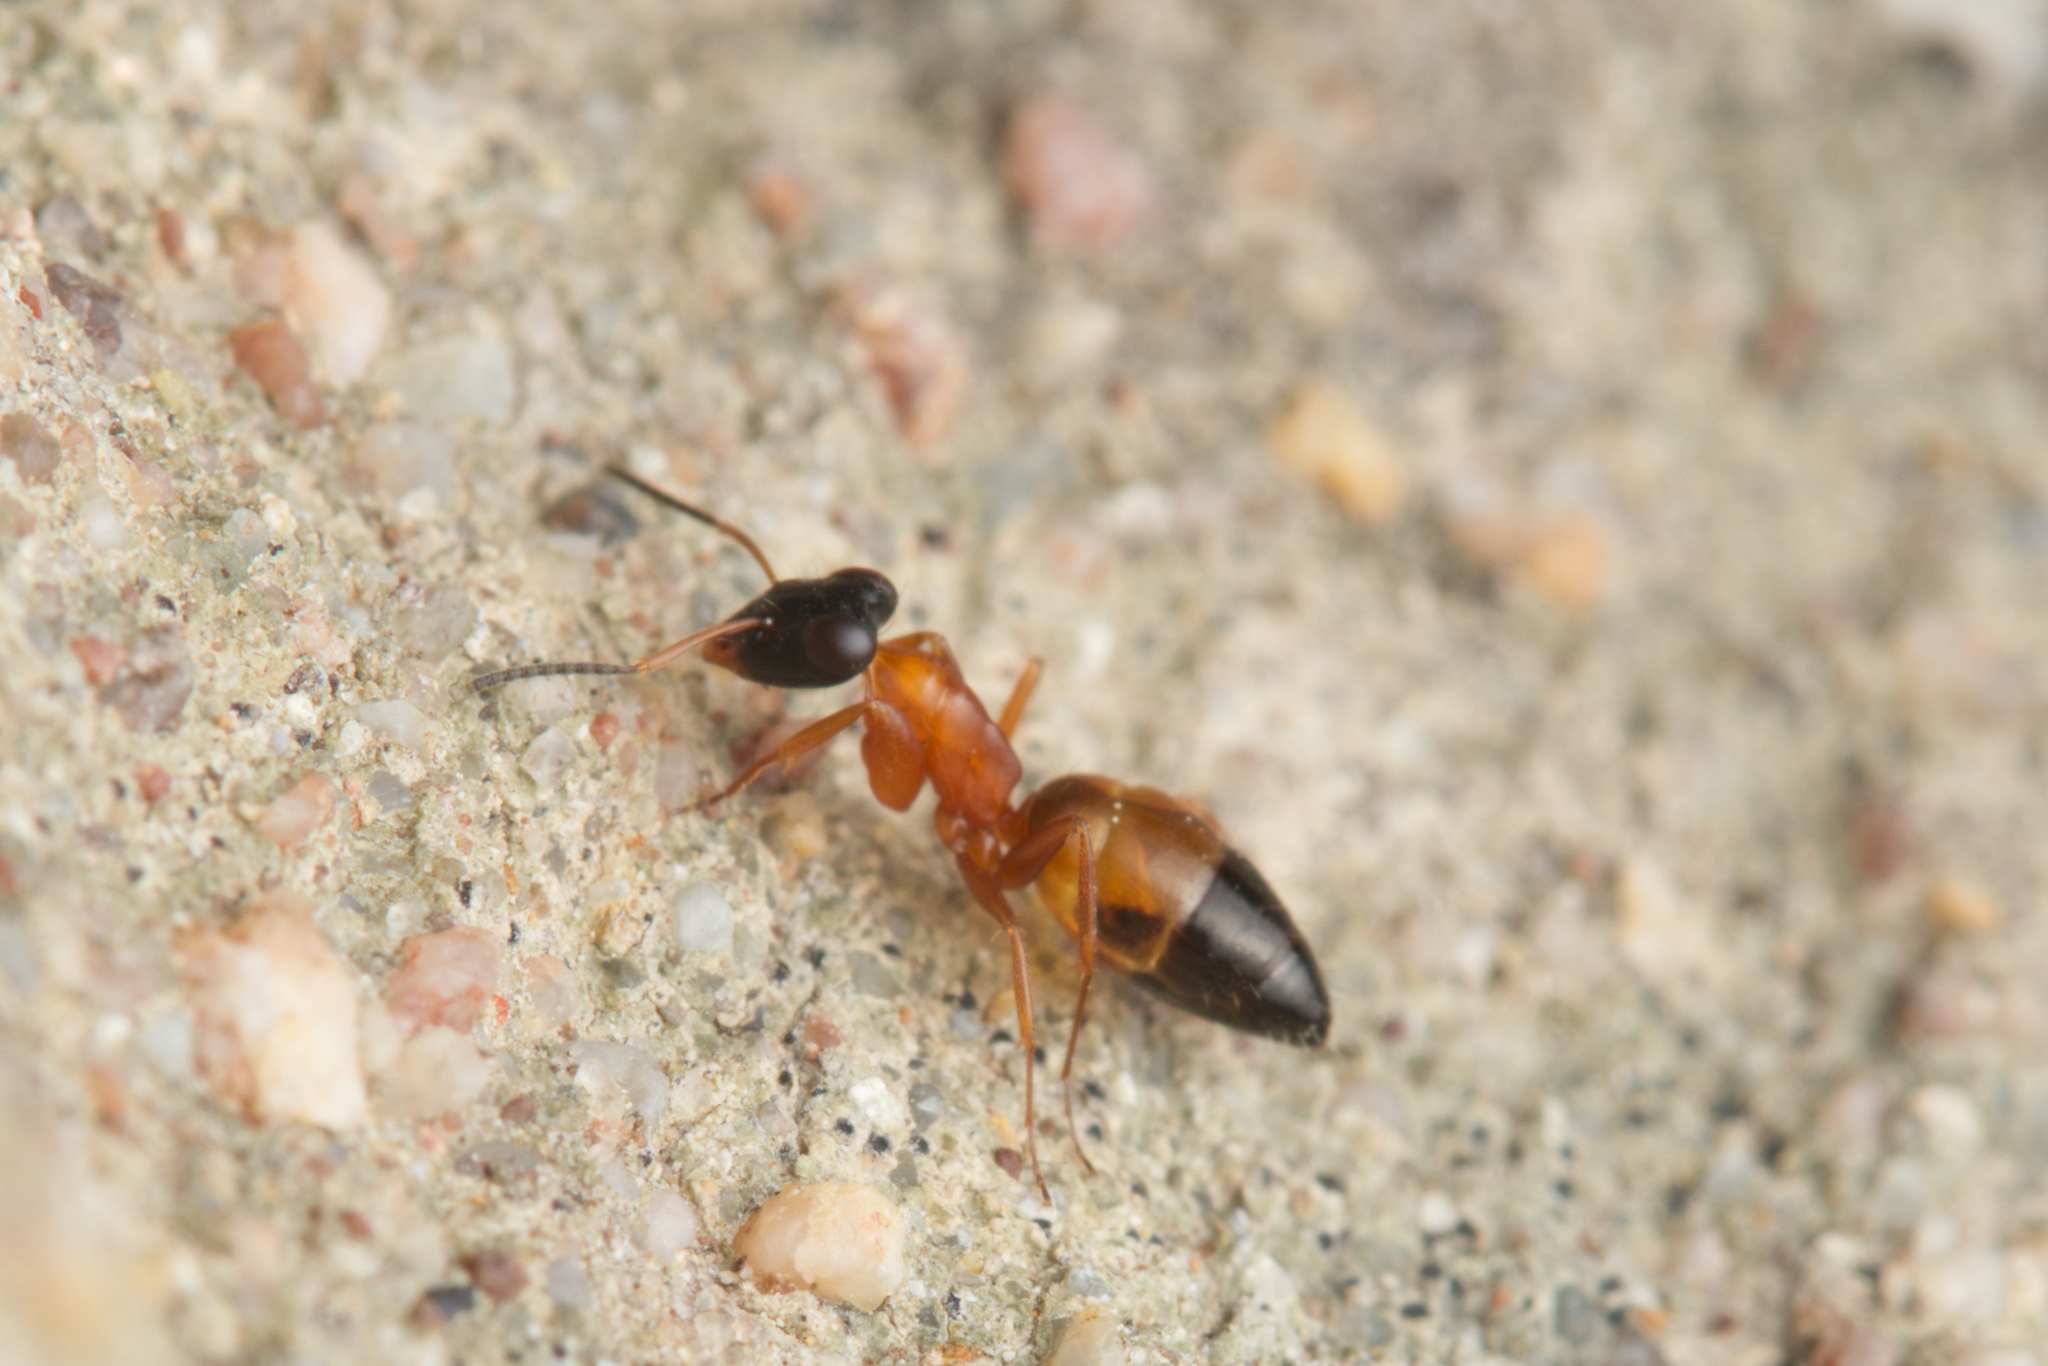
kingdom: Animalia
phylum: Arthropoda
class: Insecta
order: Hymenoptera
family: Formicidae
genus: Opisthopsis
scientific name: Opisthopsis rufithorax
